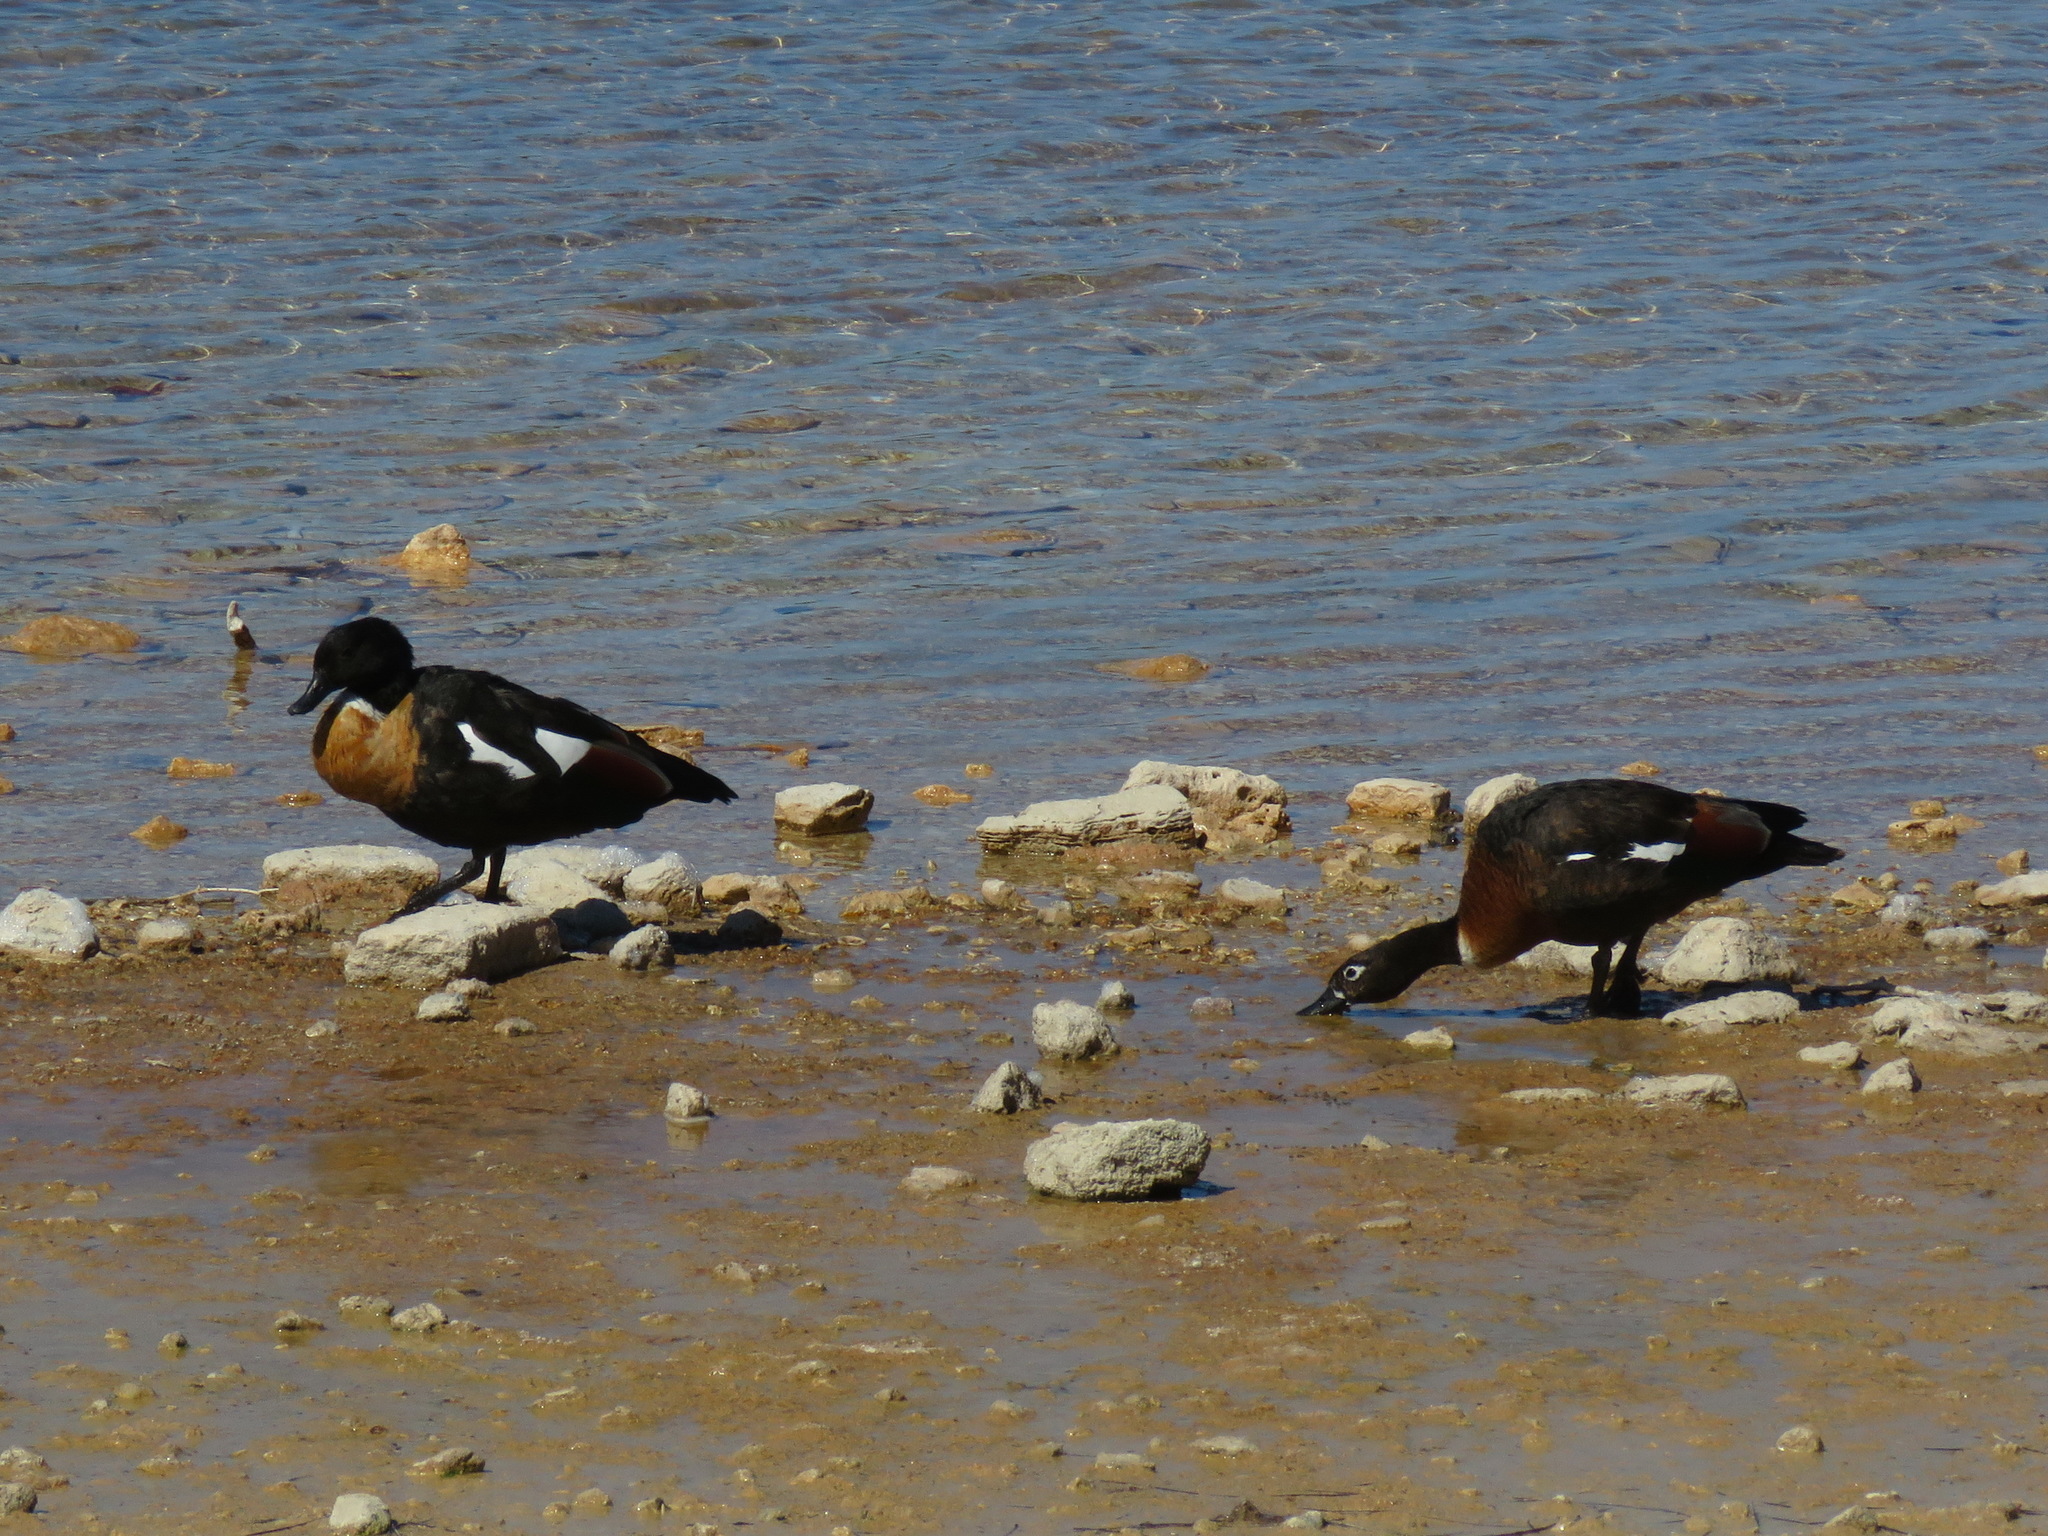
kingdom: Animalia
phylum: Chordata
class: Aves
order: Anseriformes
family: Anatidae
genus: Tadorna
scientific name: Tadorna tadornoides
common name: Australian shelduck
